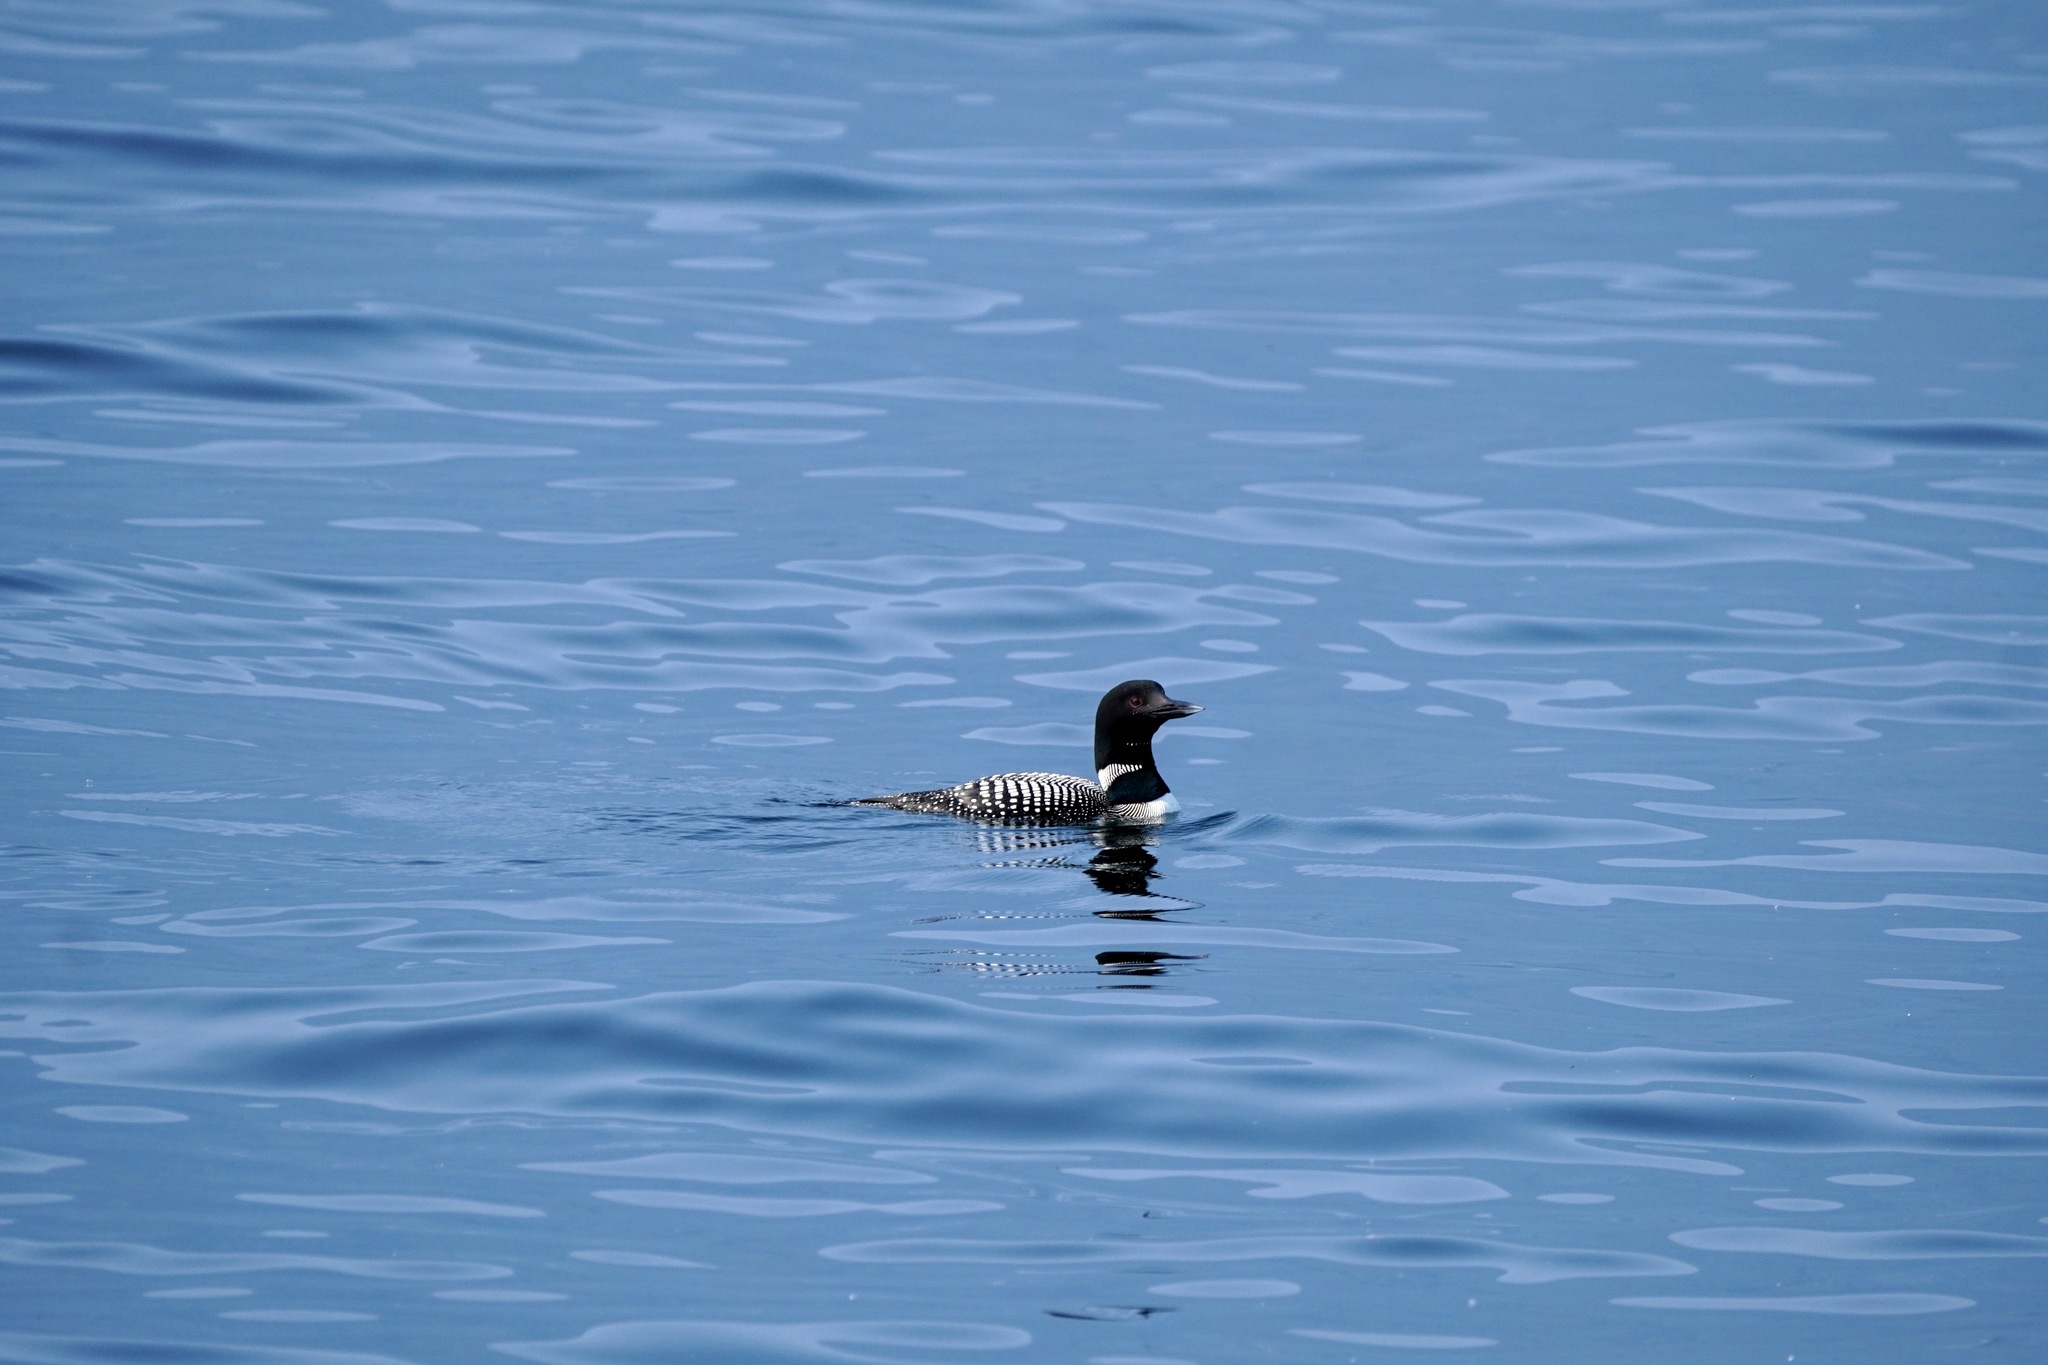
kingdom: Animalia
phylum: Chordata
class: Aves
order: Gaviiformes
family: Gaviidae
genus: Gavia
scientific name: Gavia immer
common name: Common loon
